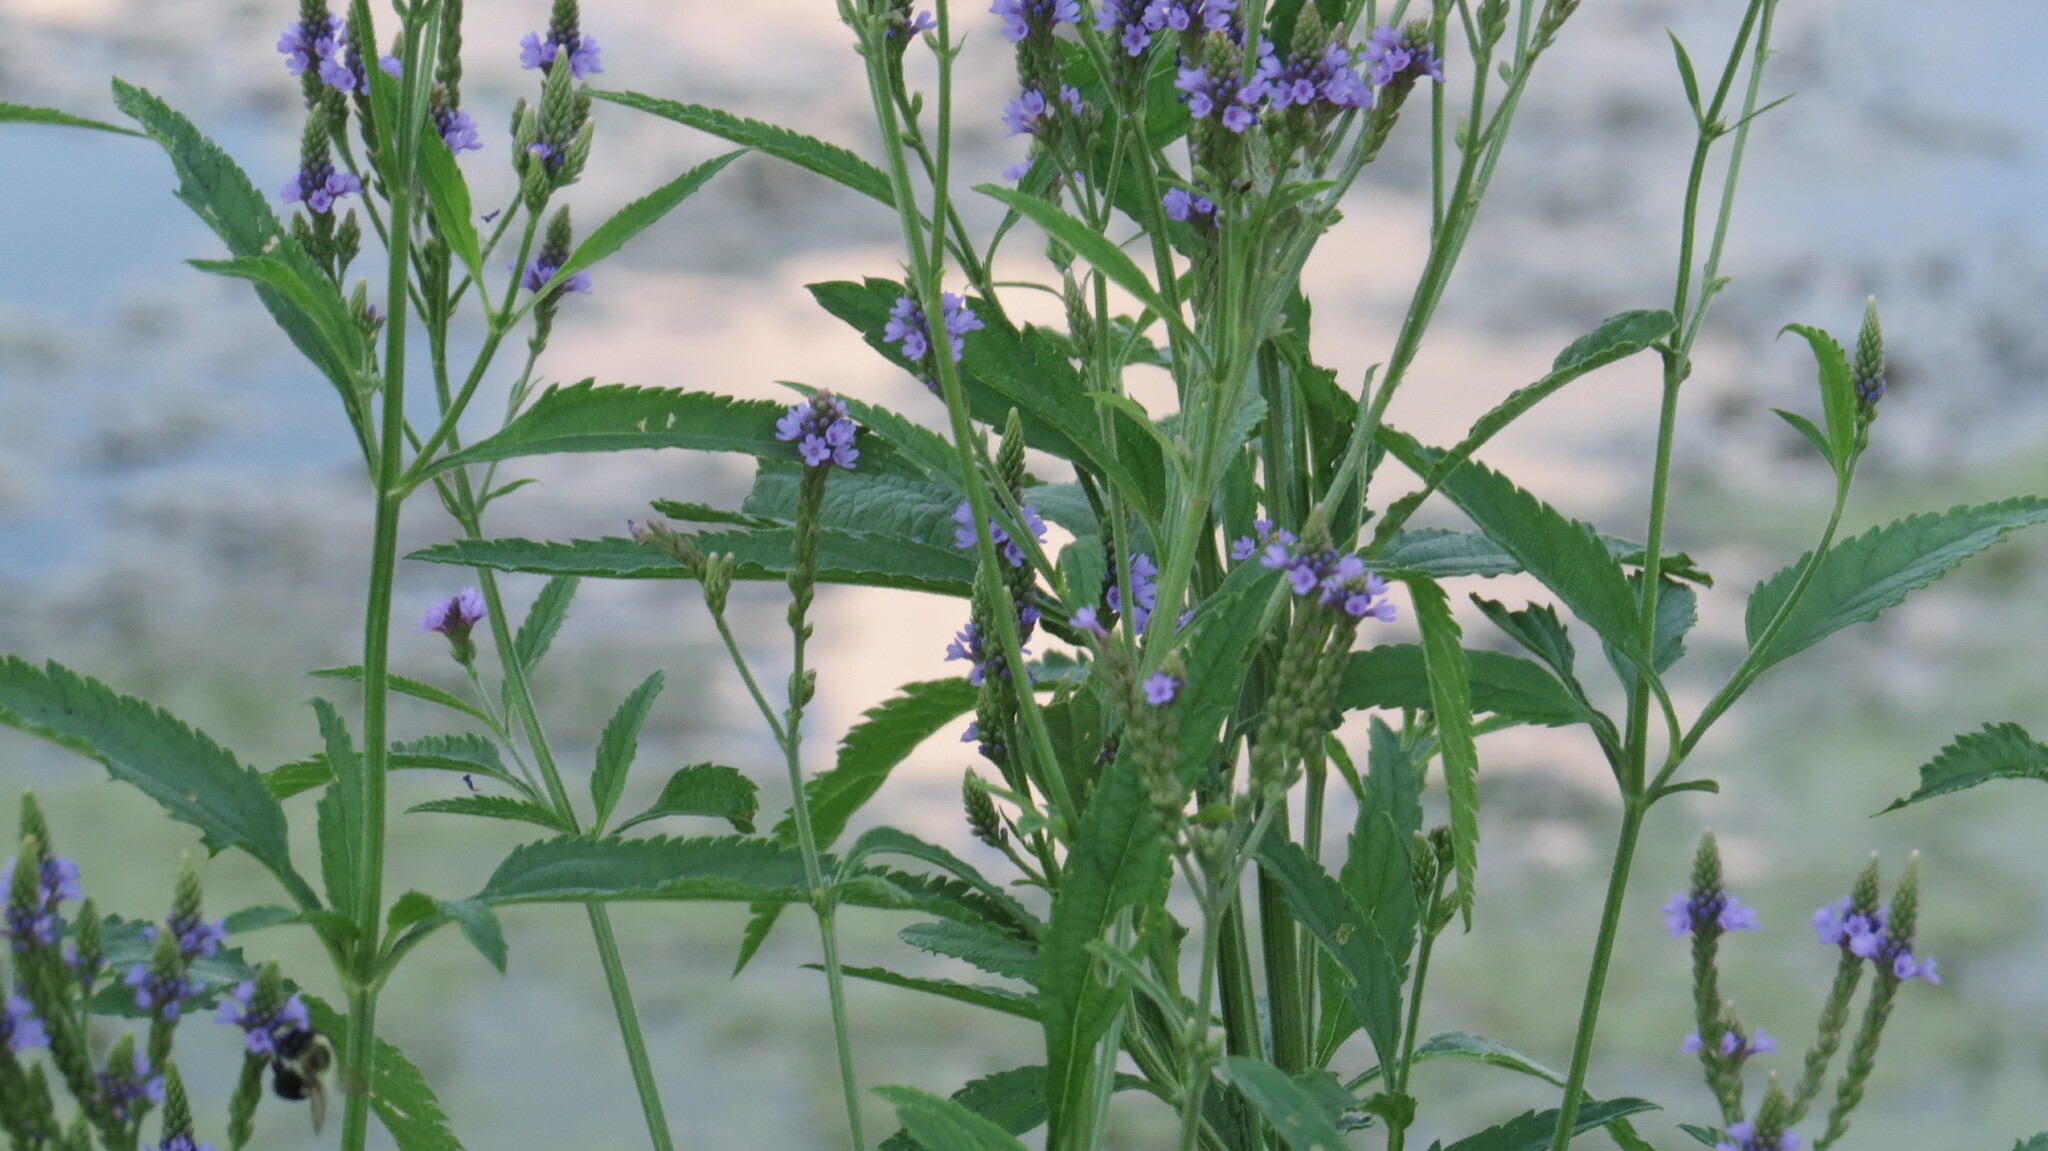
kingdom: Plantae
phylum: Tracheophyta
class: Magnoliopsida
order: Lamiales
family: Verbenaceae
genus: Verbena
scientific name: Verbena hastata
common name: American blue vervain
